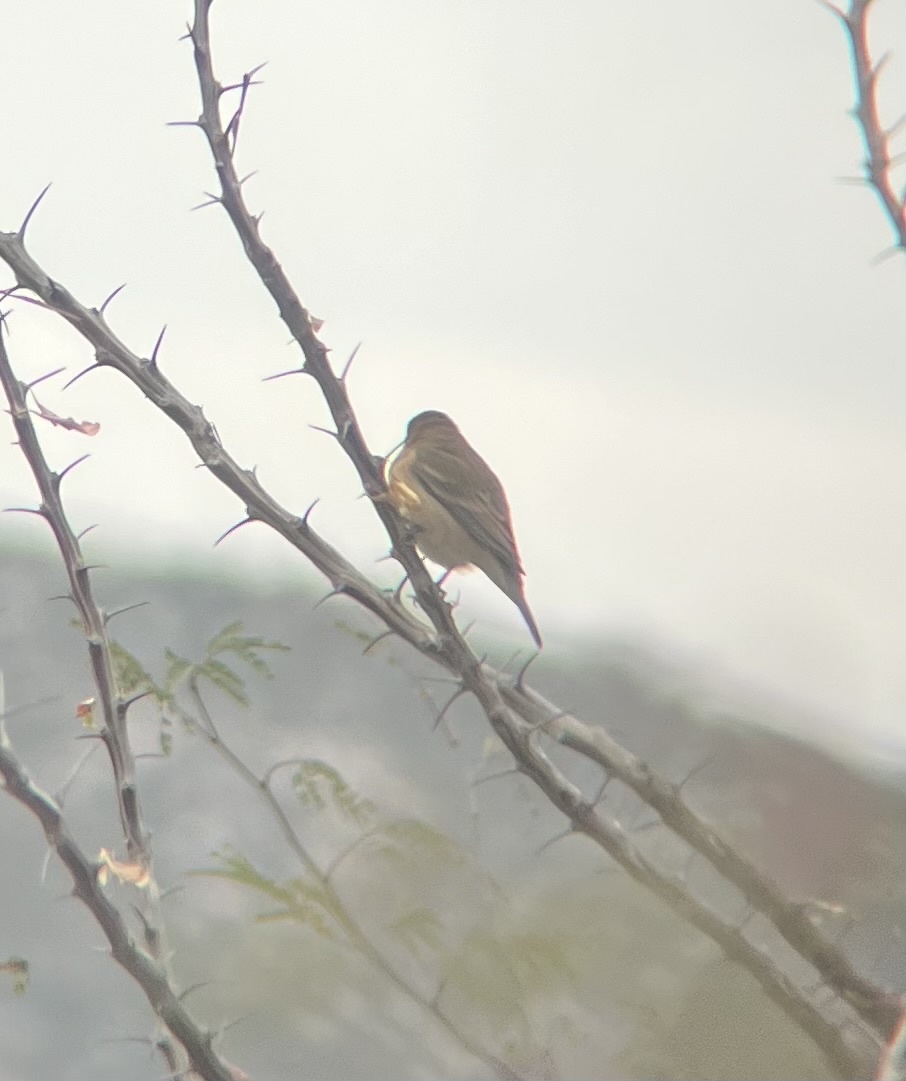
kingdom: Animalia
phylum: Chordata
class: Aves
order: Passeriformes
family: Cardinalidae
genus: Passerina
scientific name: Passerina amoena
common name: Lazuli bunting
